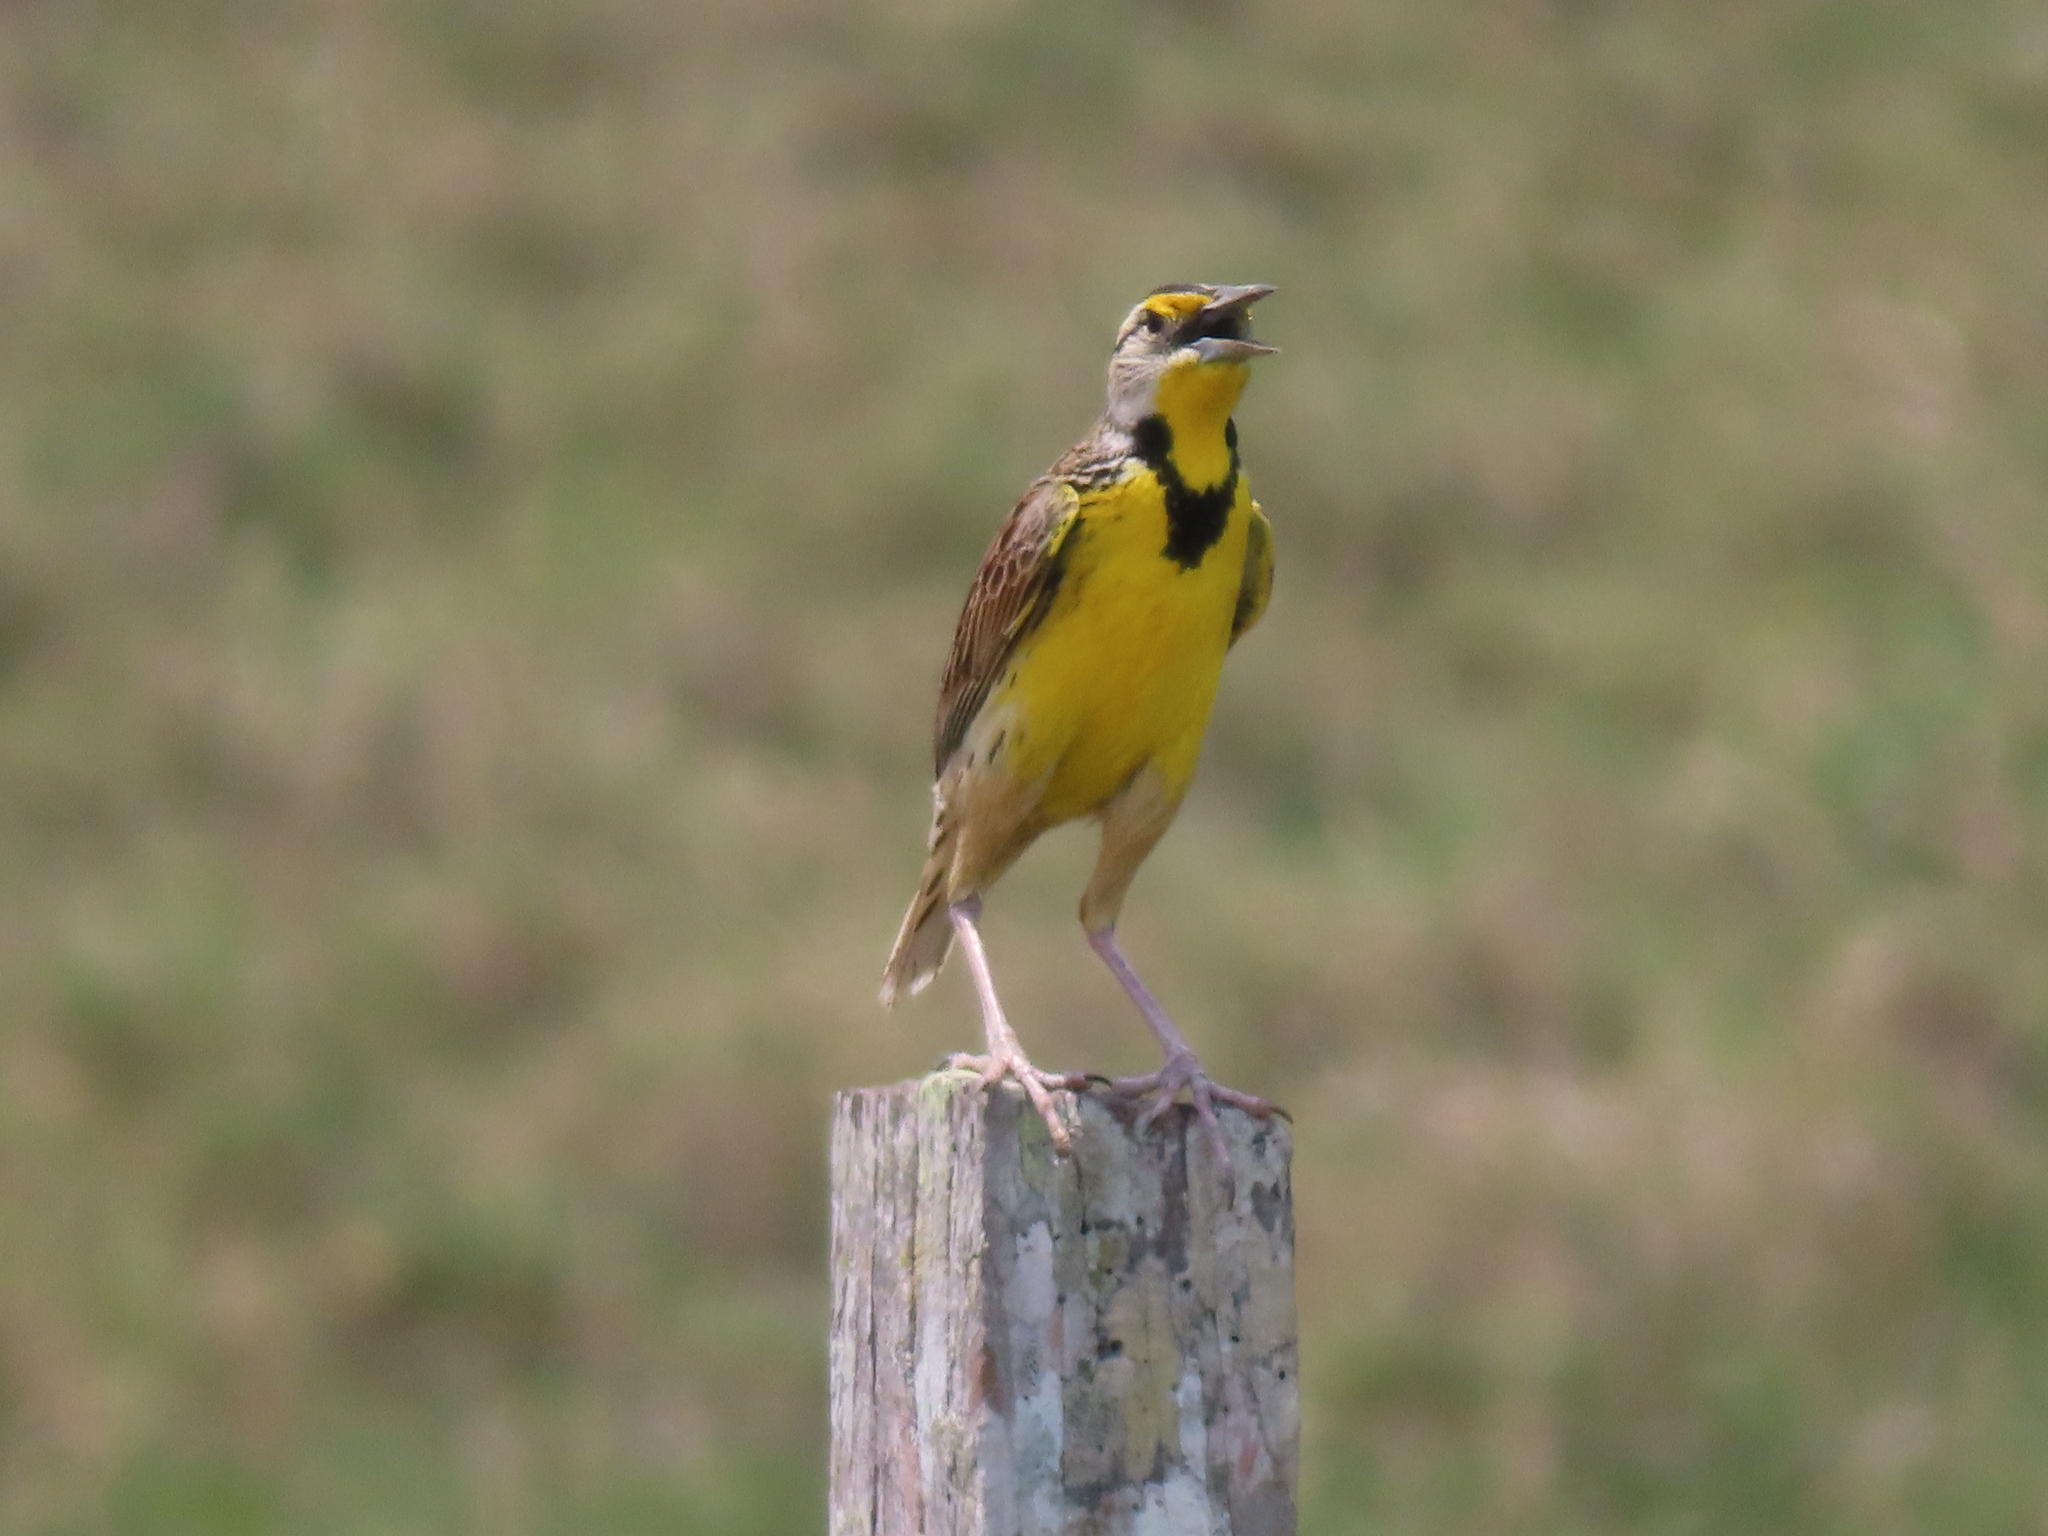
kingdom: Animalia
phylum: Chordata
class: Aves
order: Passeriformes
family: Icteridae
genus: Sturnella
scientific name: Sturnella magna
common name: Eastern meadowlark
